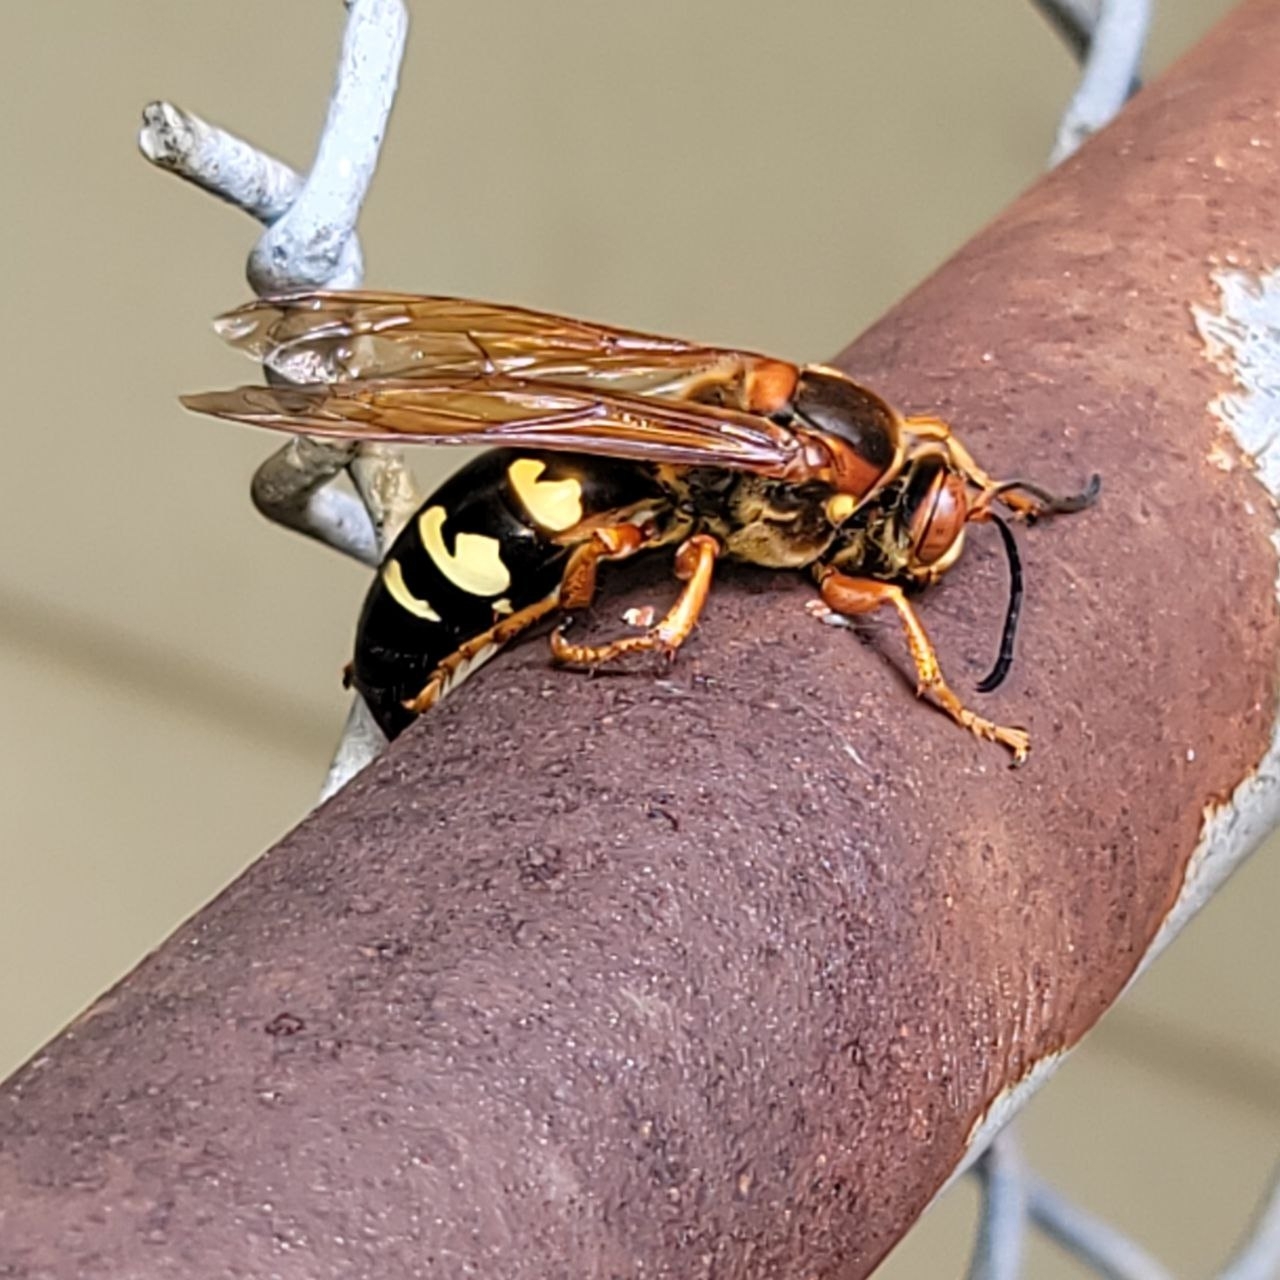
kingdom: Animalia
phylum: Arthropoda
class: Insecta
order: Hymenoptera
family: Crabronidae
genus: Sphecius
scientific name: Sphecius speciosus
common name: Cicada killer
